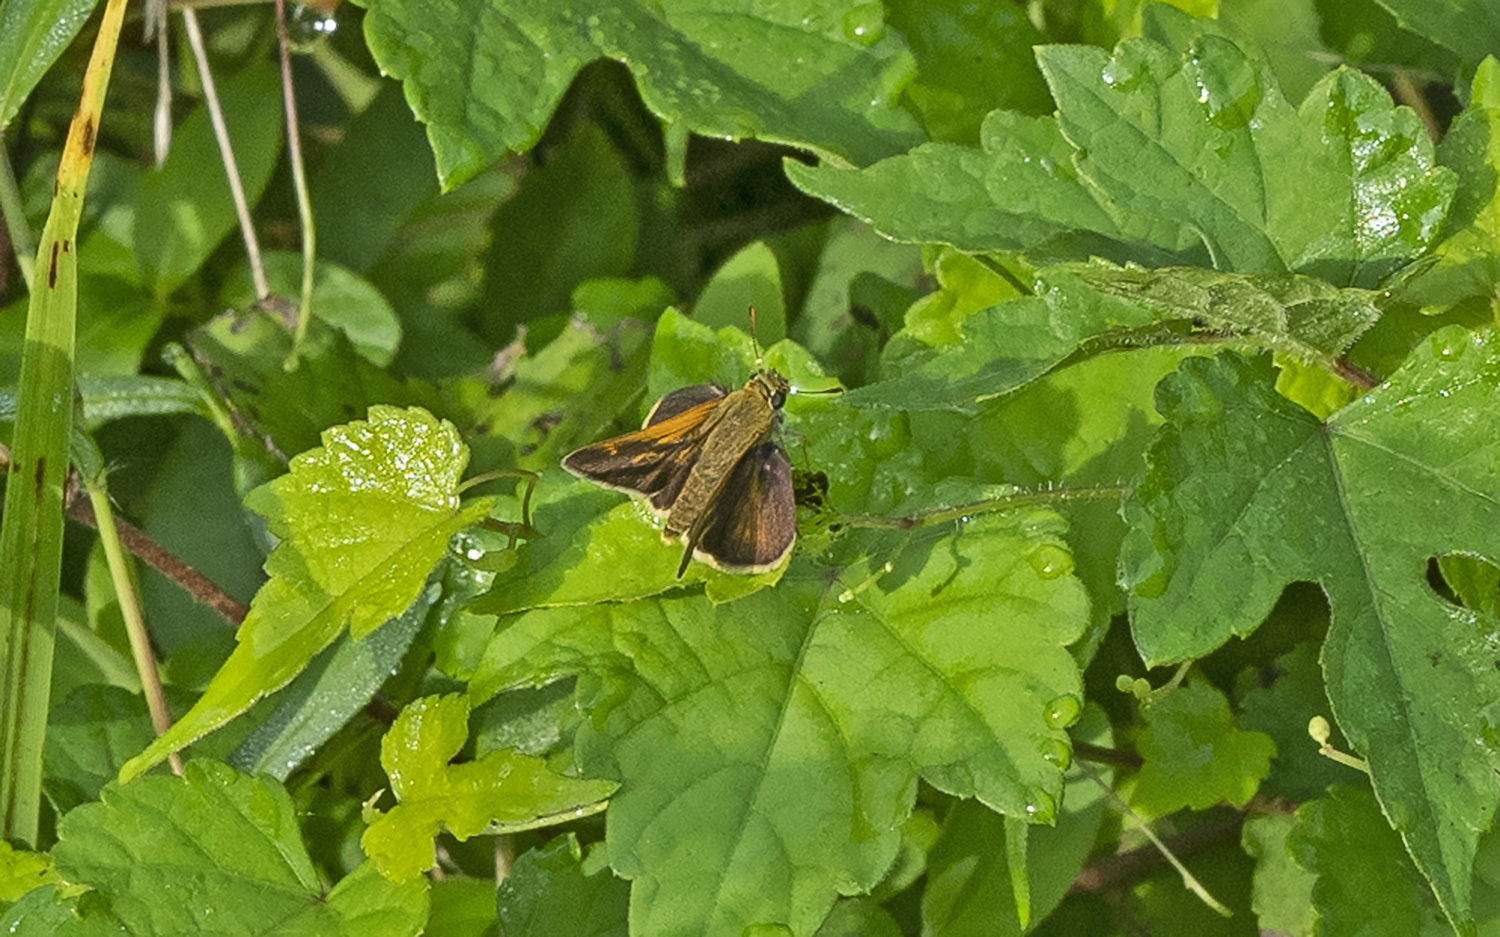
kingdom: Animalia
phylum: Arthropoda
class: Insecta
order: Lepidoptera
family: Hesperiidae
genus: Polites
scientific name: Polites origenes
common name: Crossline skipper
